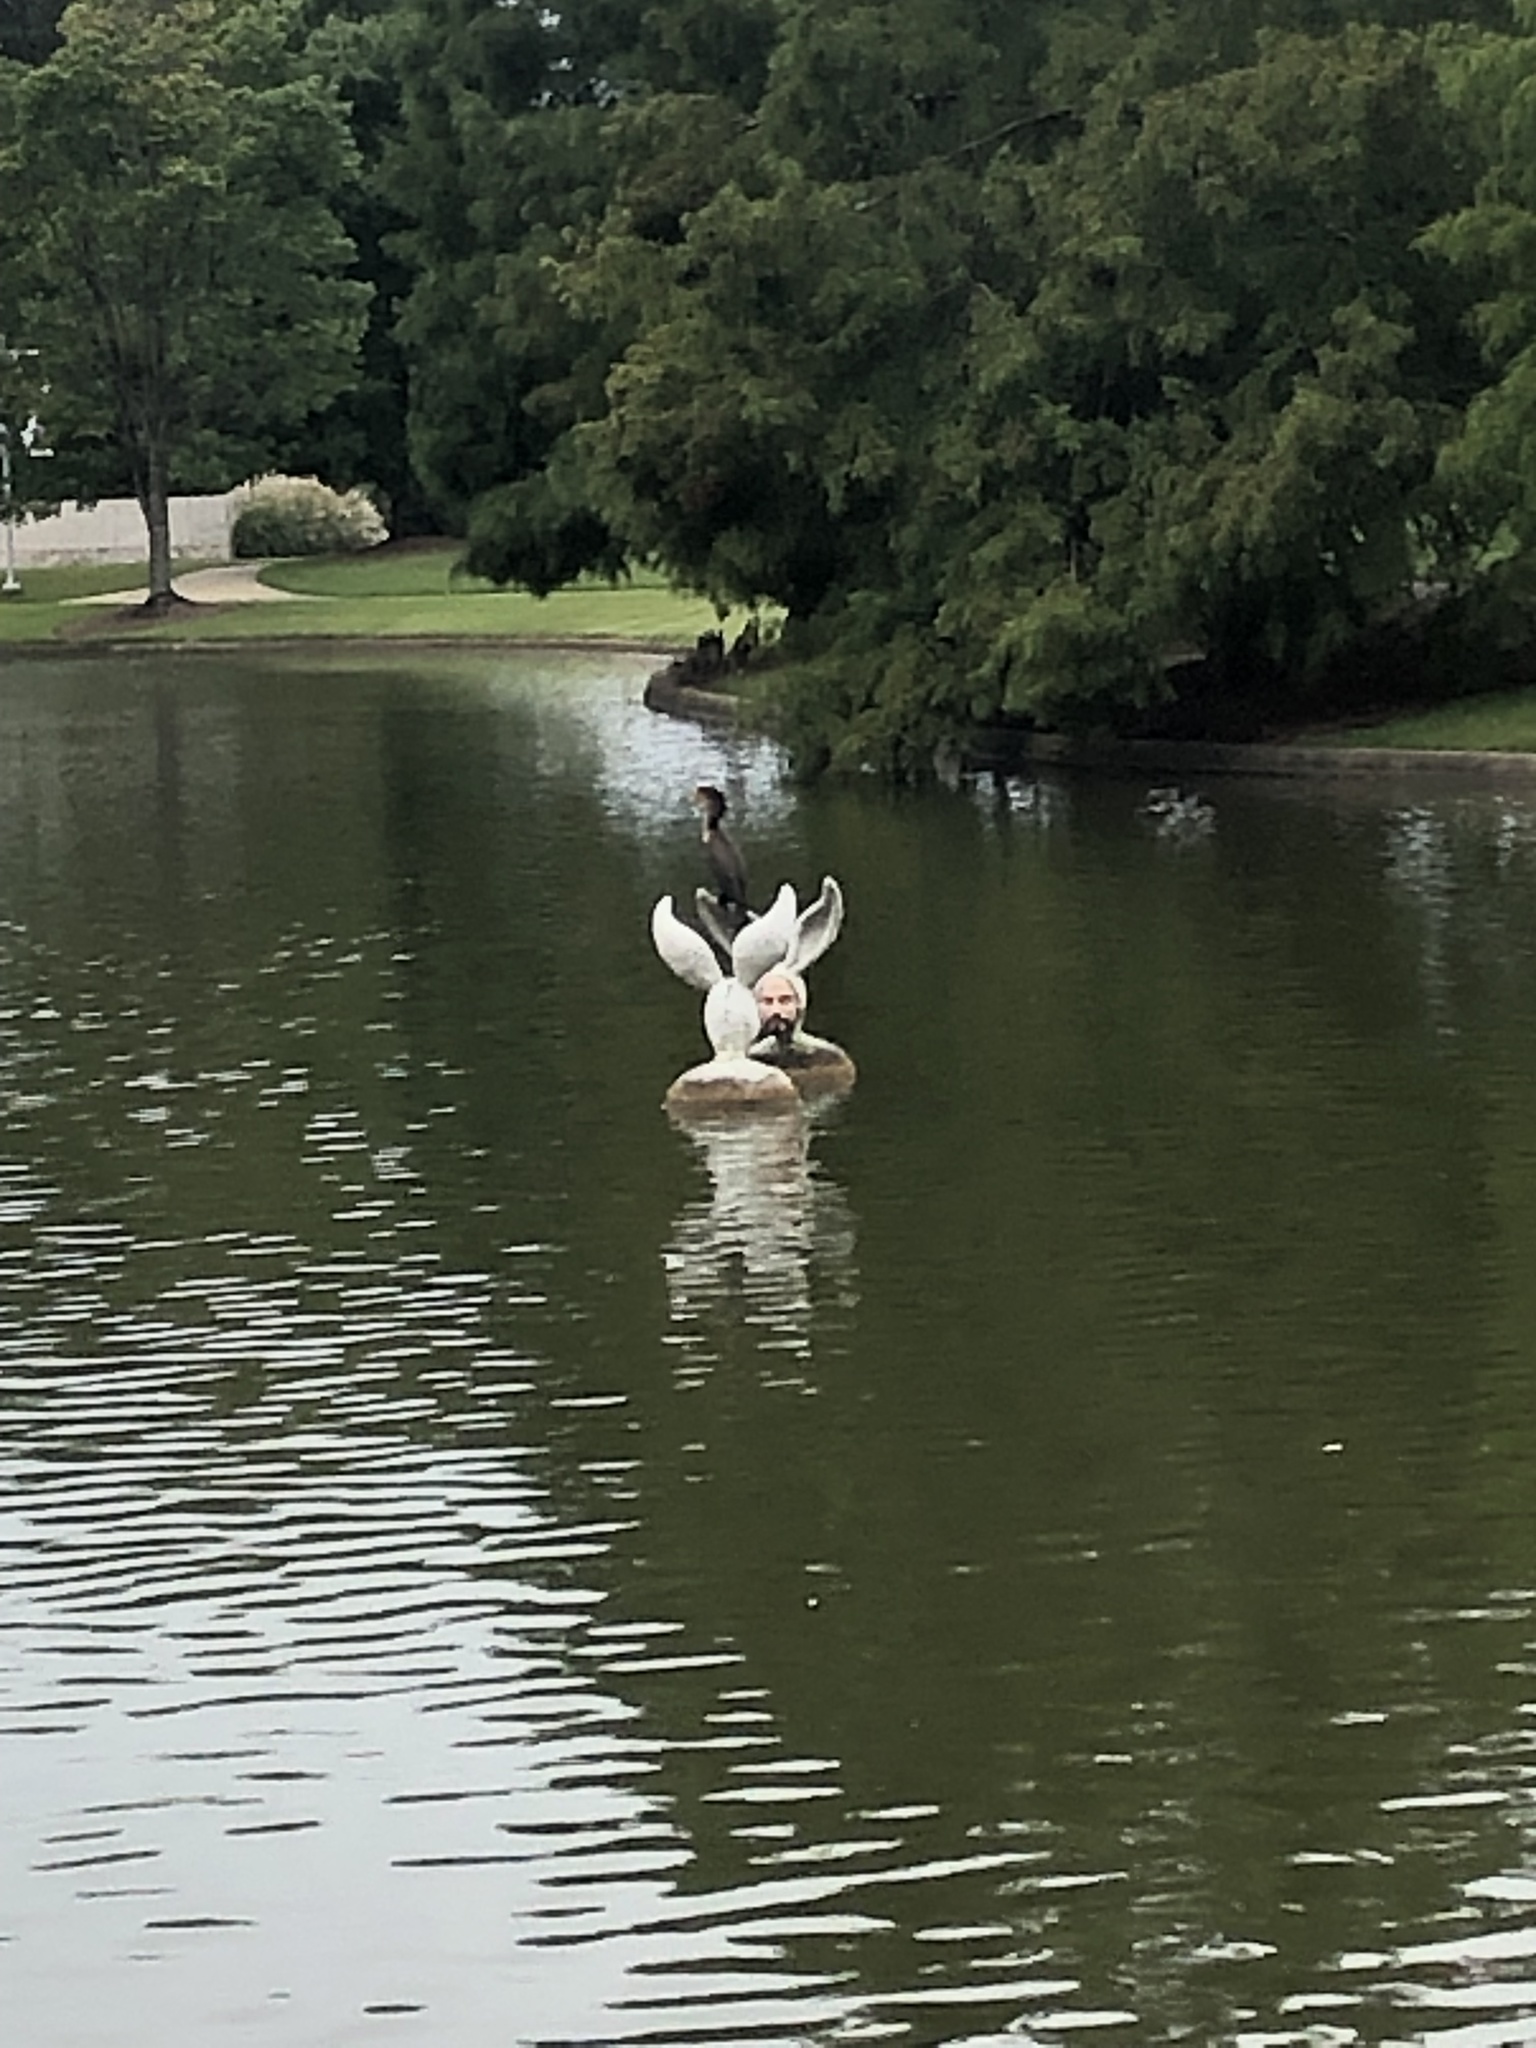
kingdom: Animalia
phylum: Chordata
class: Aves
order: Suliformes
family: Phalacrocoracidae
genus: Phalacrocorax
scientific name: Phalacrocorax auritus
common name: Double-crested cormorant
